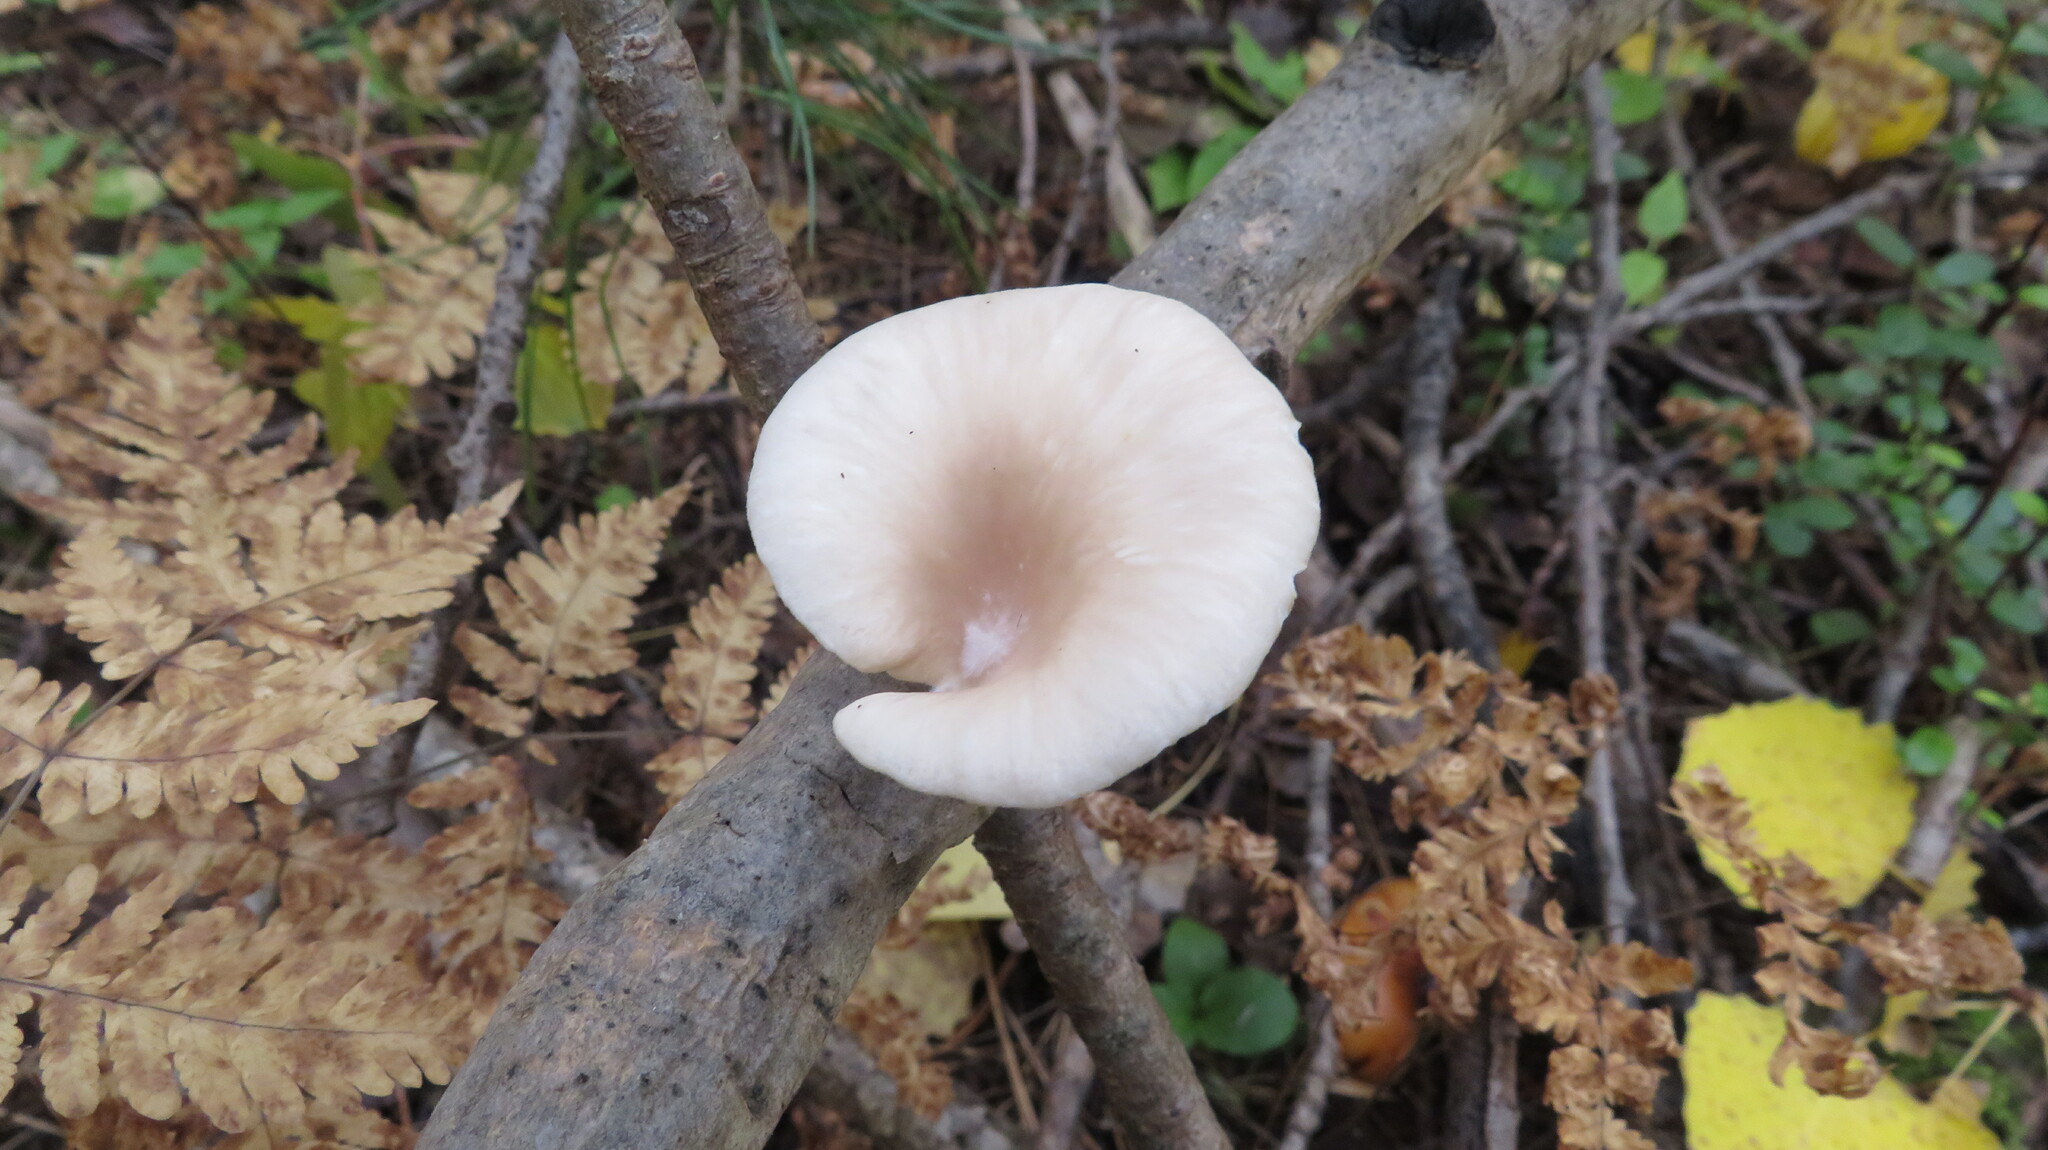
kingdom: Fungi
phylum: Basidiomycota
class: Agaricomycetes
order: Agaricales
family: Pleurotaceae
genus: Pleurotus
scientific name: Pleurotus pulmonarius
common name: Pale oyster
